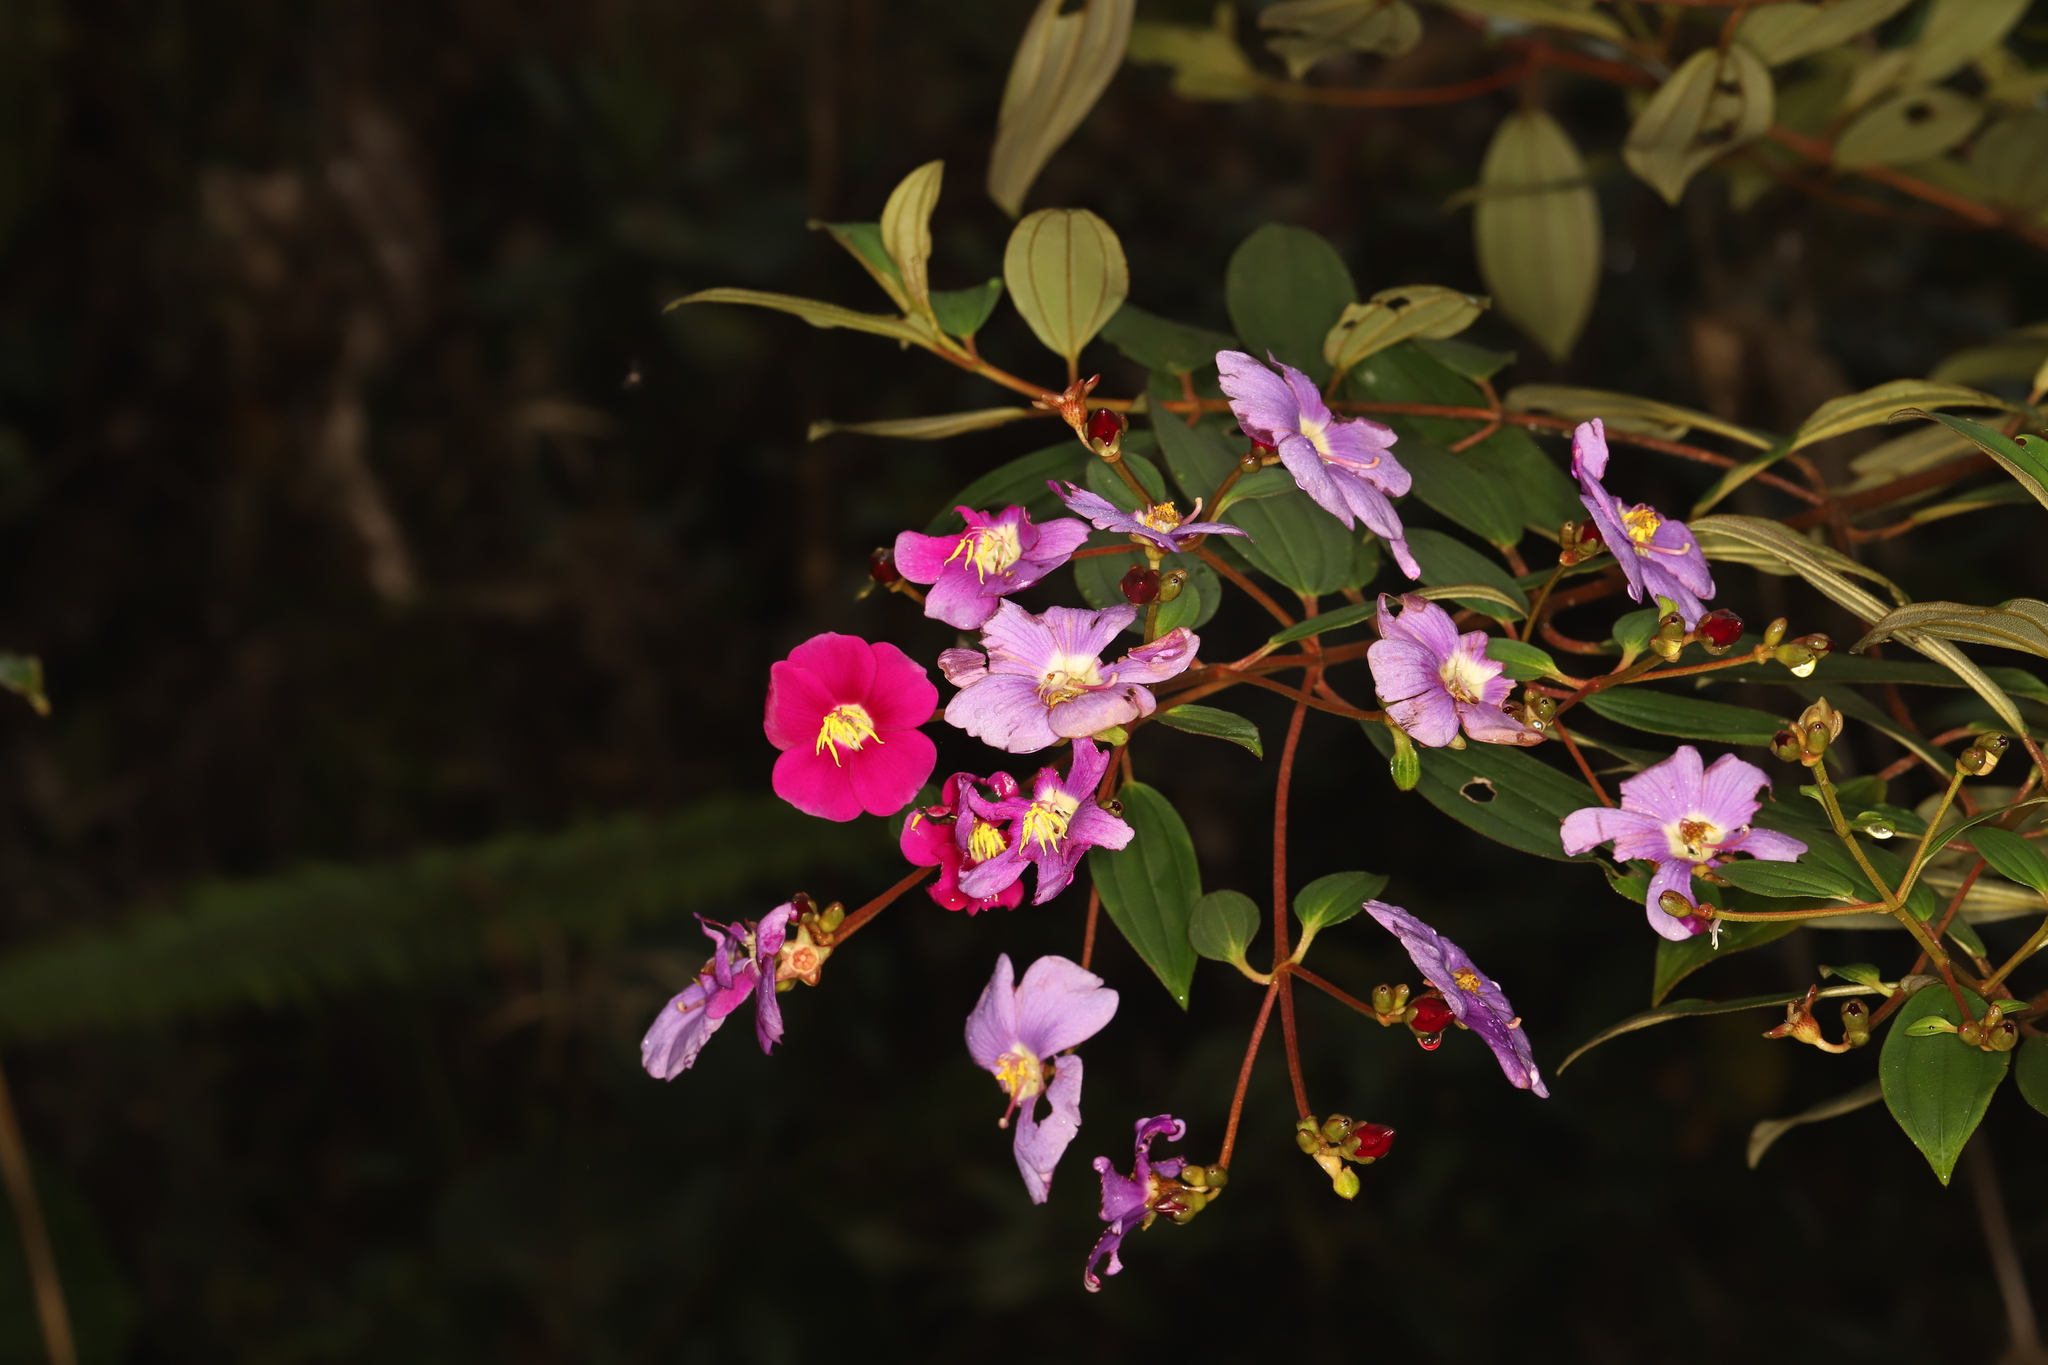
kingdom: Plantae
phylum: Tracheophyta
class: Magnoliopsida
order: Myrtales
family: Melastomataceae
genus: Andesanthus
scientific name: Andesanthus lepidotus
